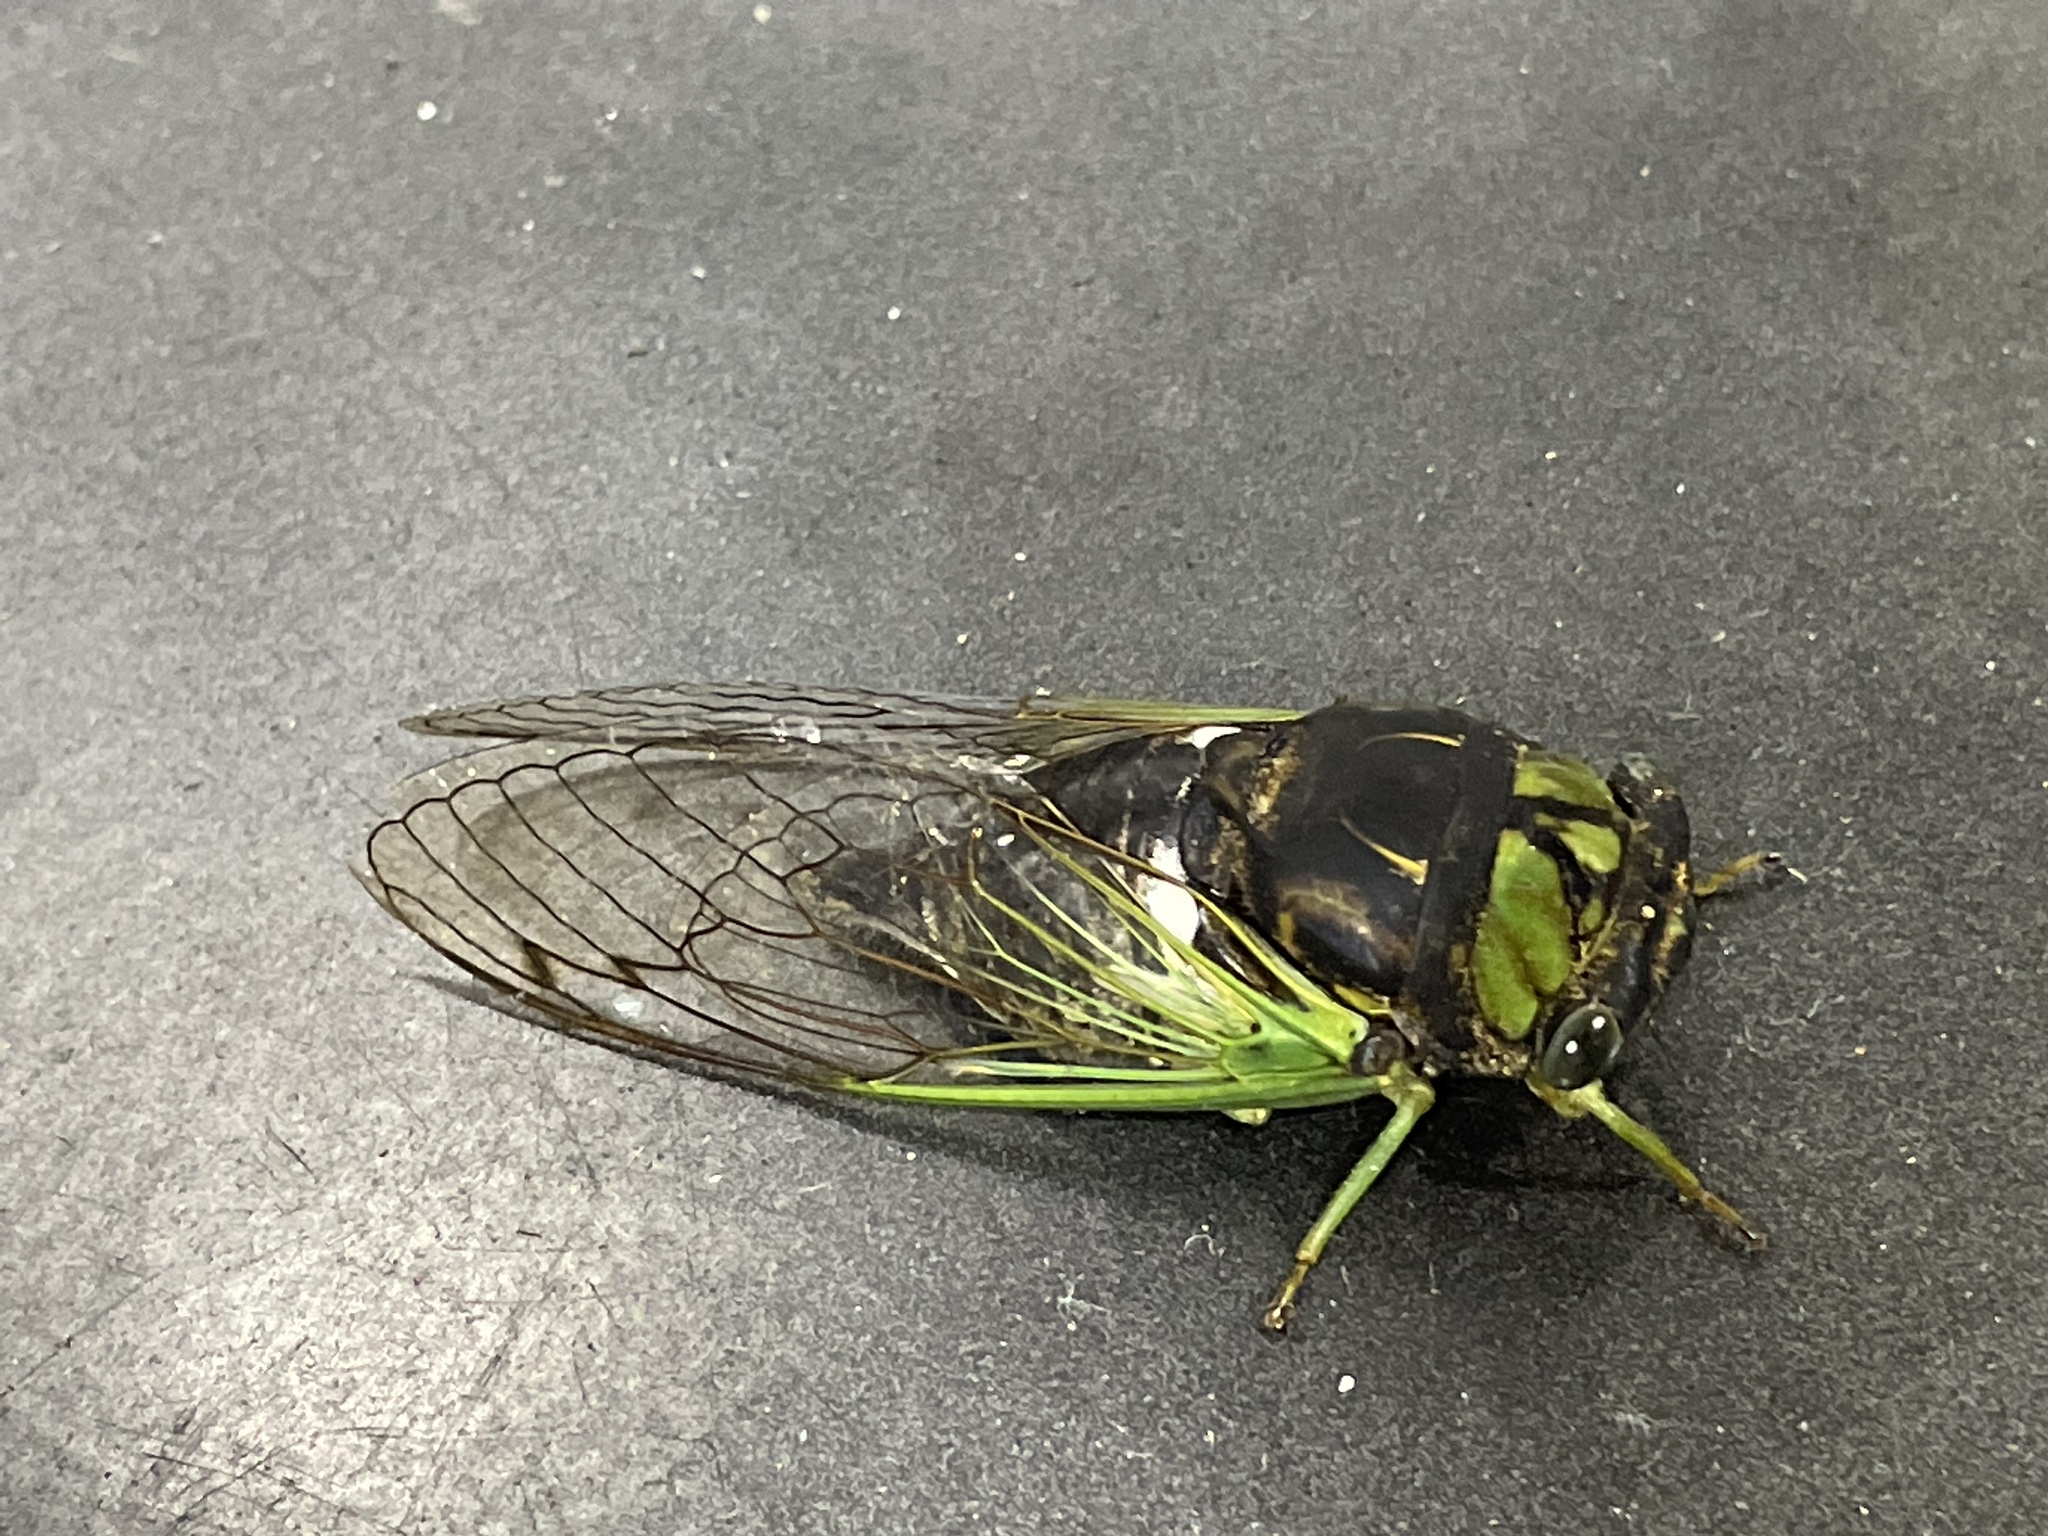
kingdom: Animalia
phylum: Arthropoda
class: Insecta
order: Hemiptera
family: Cicadidae
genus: Neotibicen
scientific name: Neotibicen tibicen
